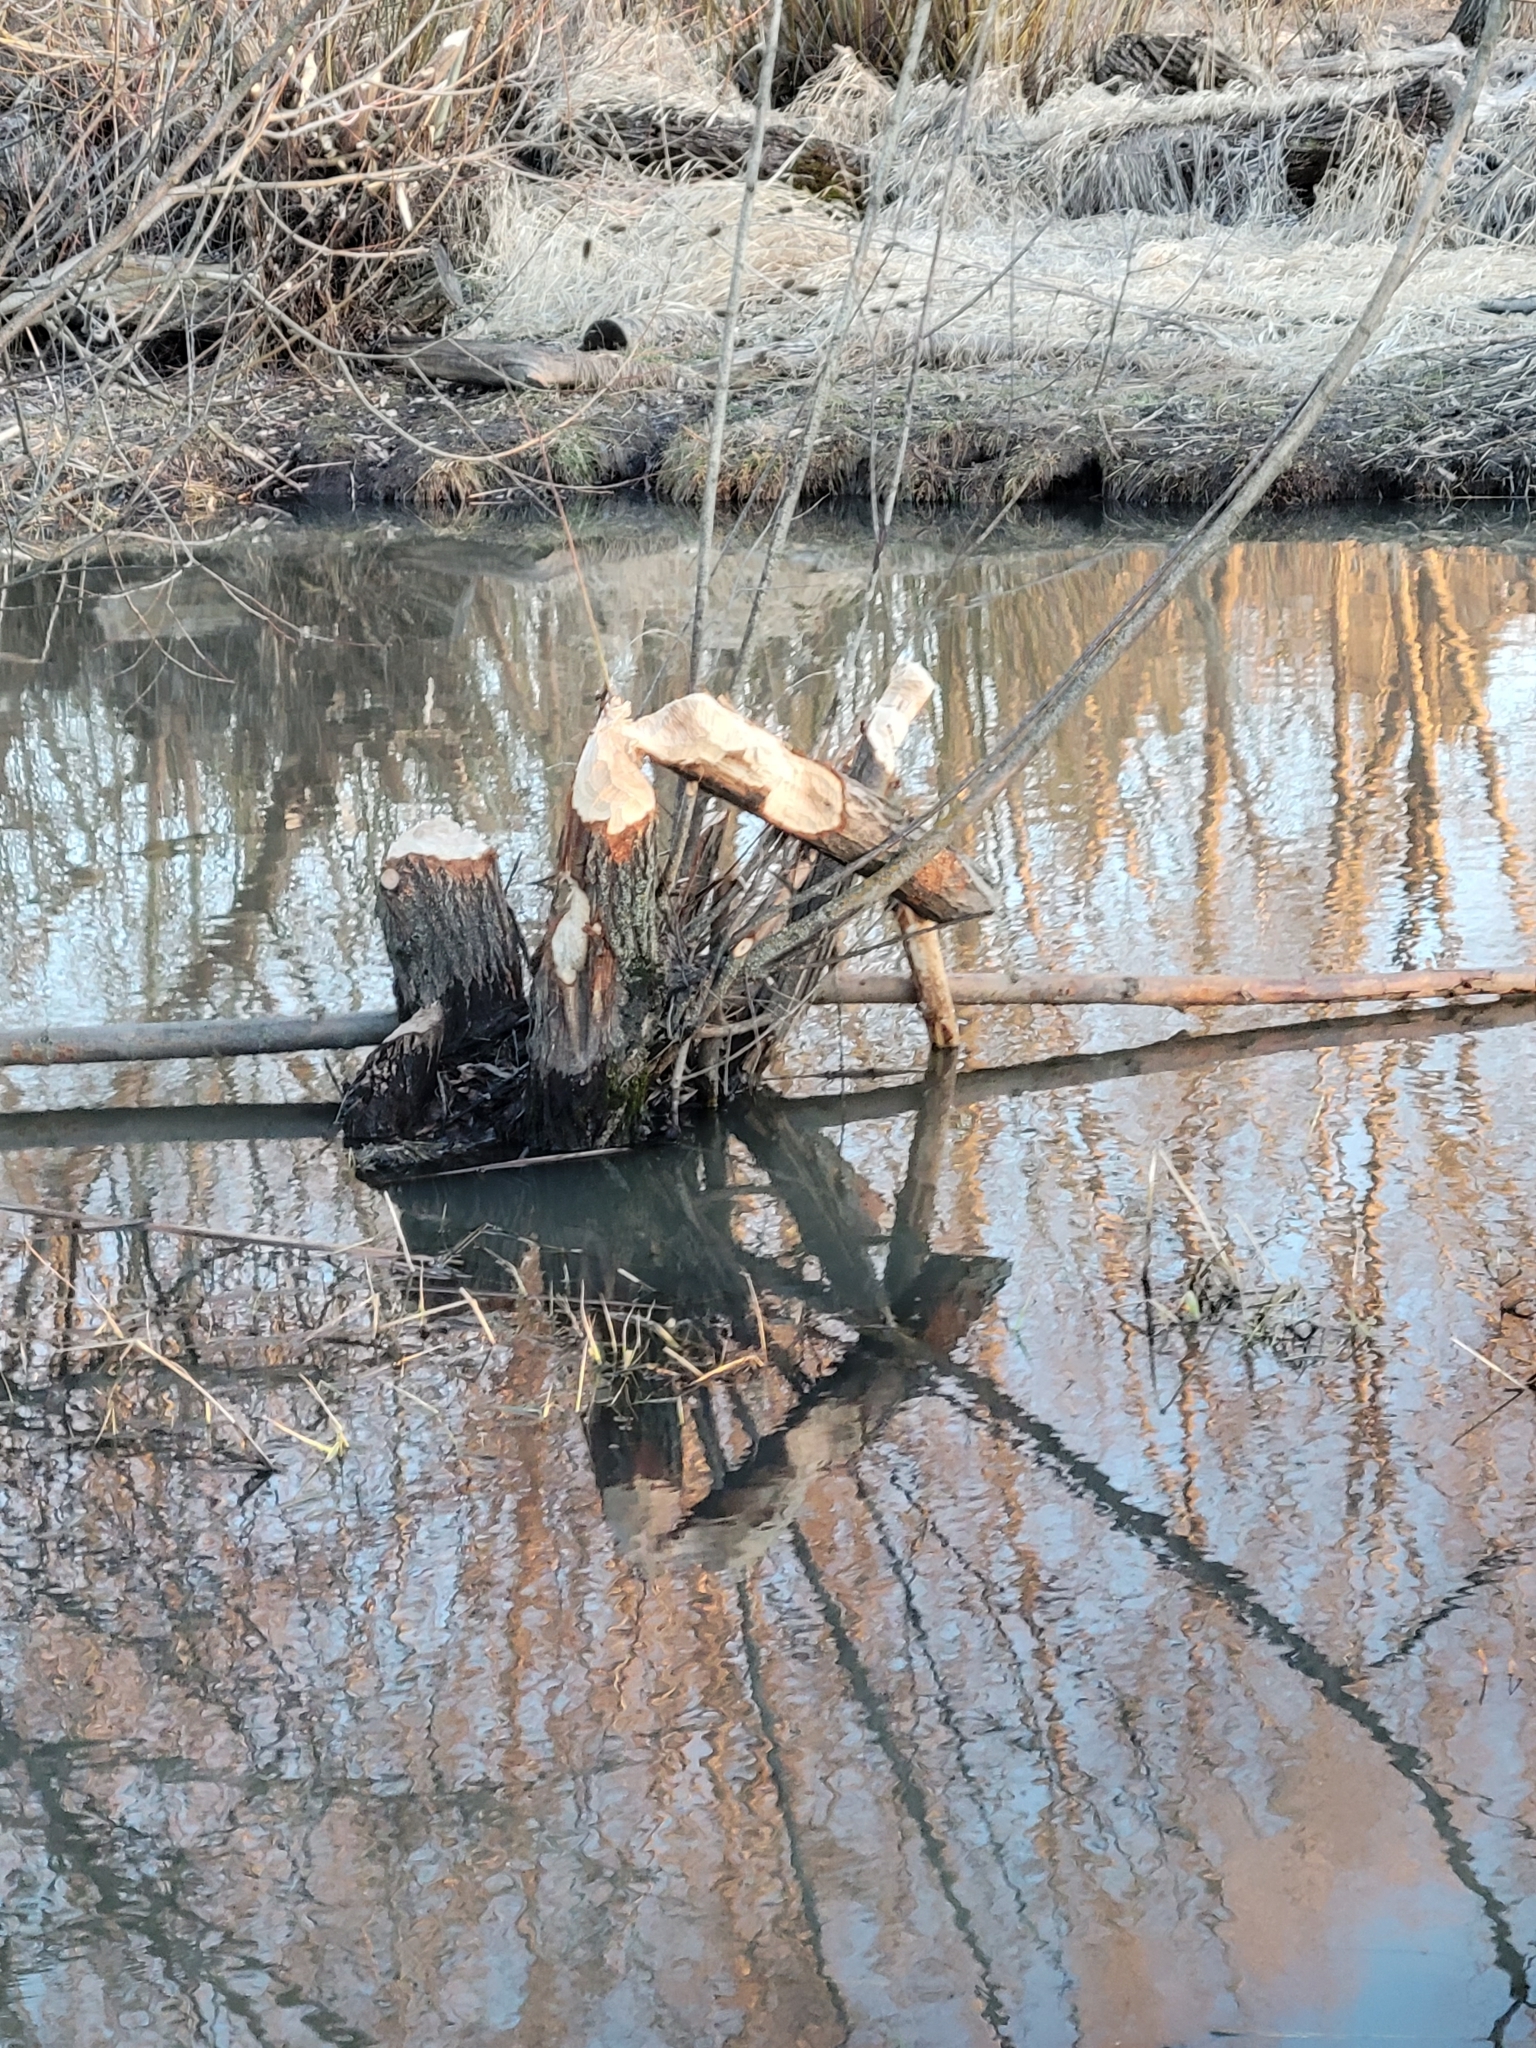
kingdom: Animalia
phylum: Chordata
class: Mammalia
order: Rodentia
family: Castoridae
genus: Castor
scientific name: Castor canadensis
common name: American beaver
